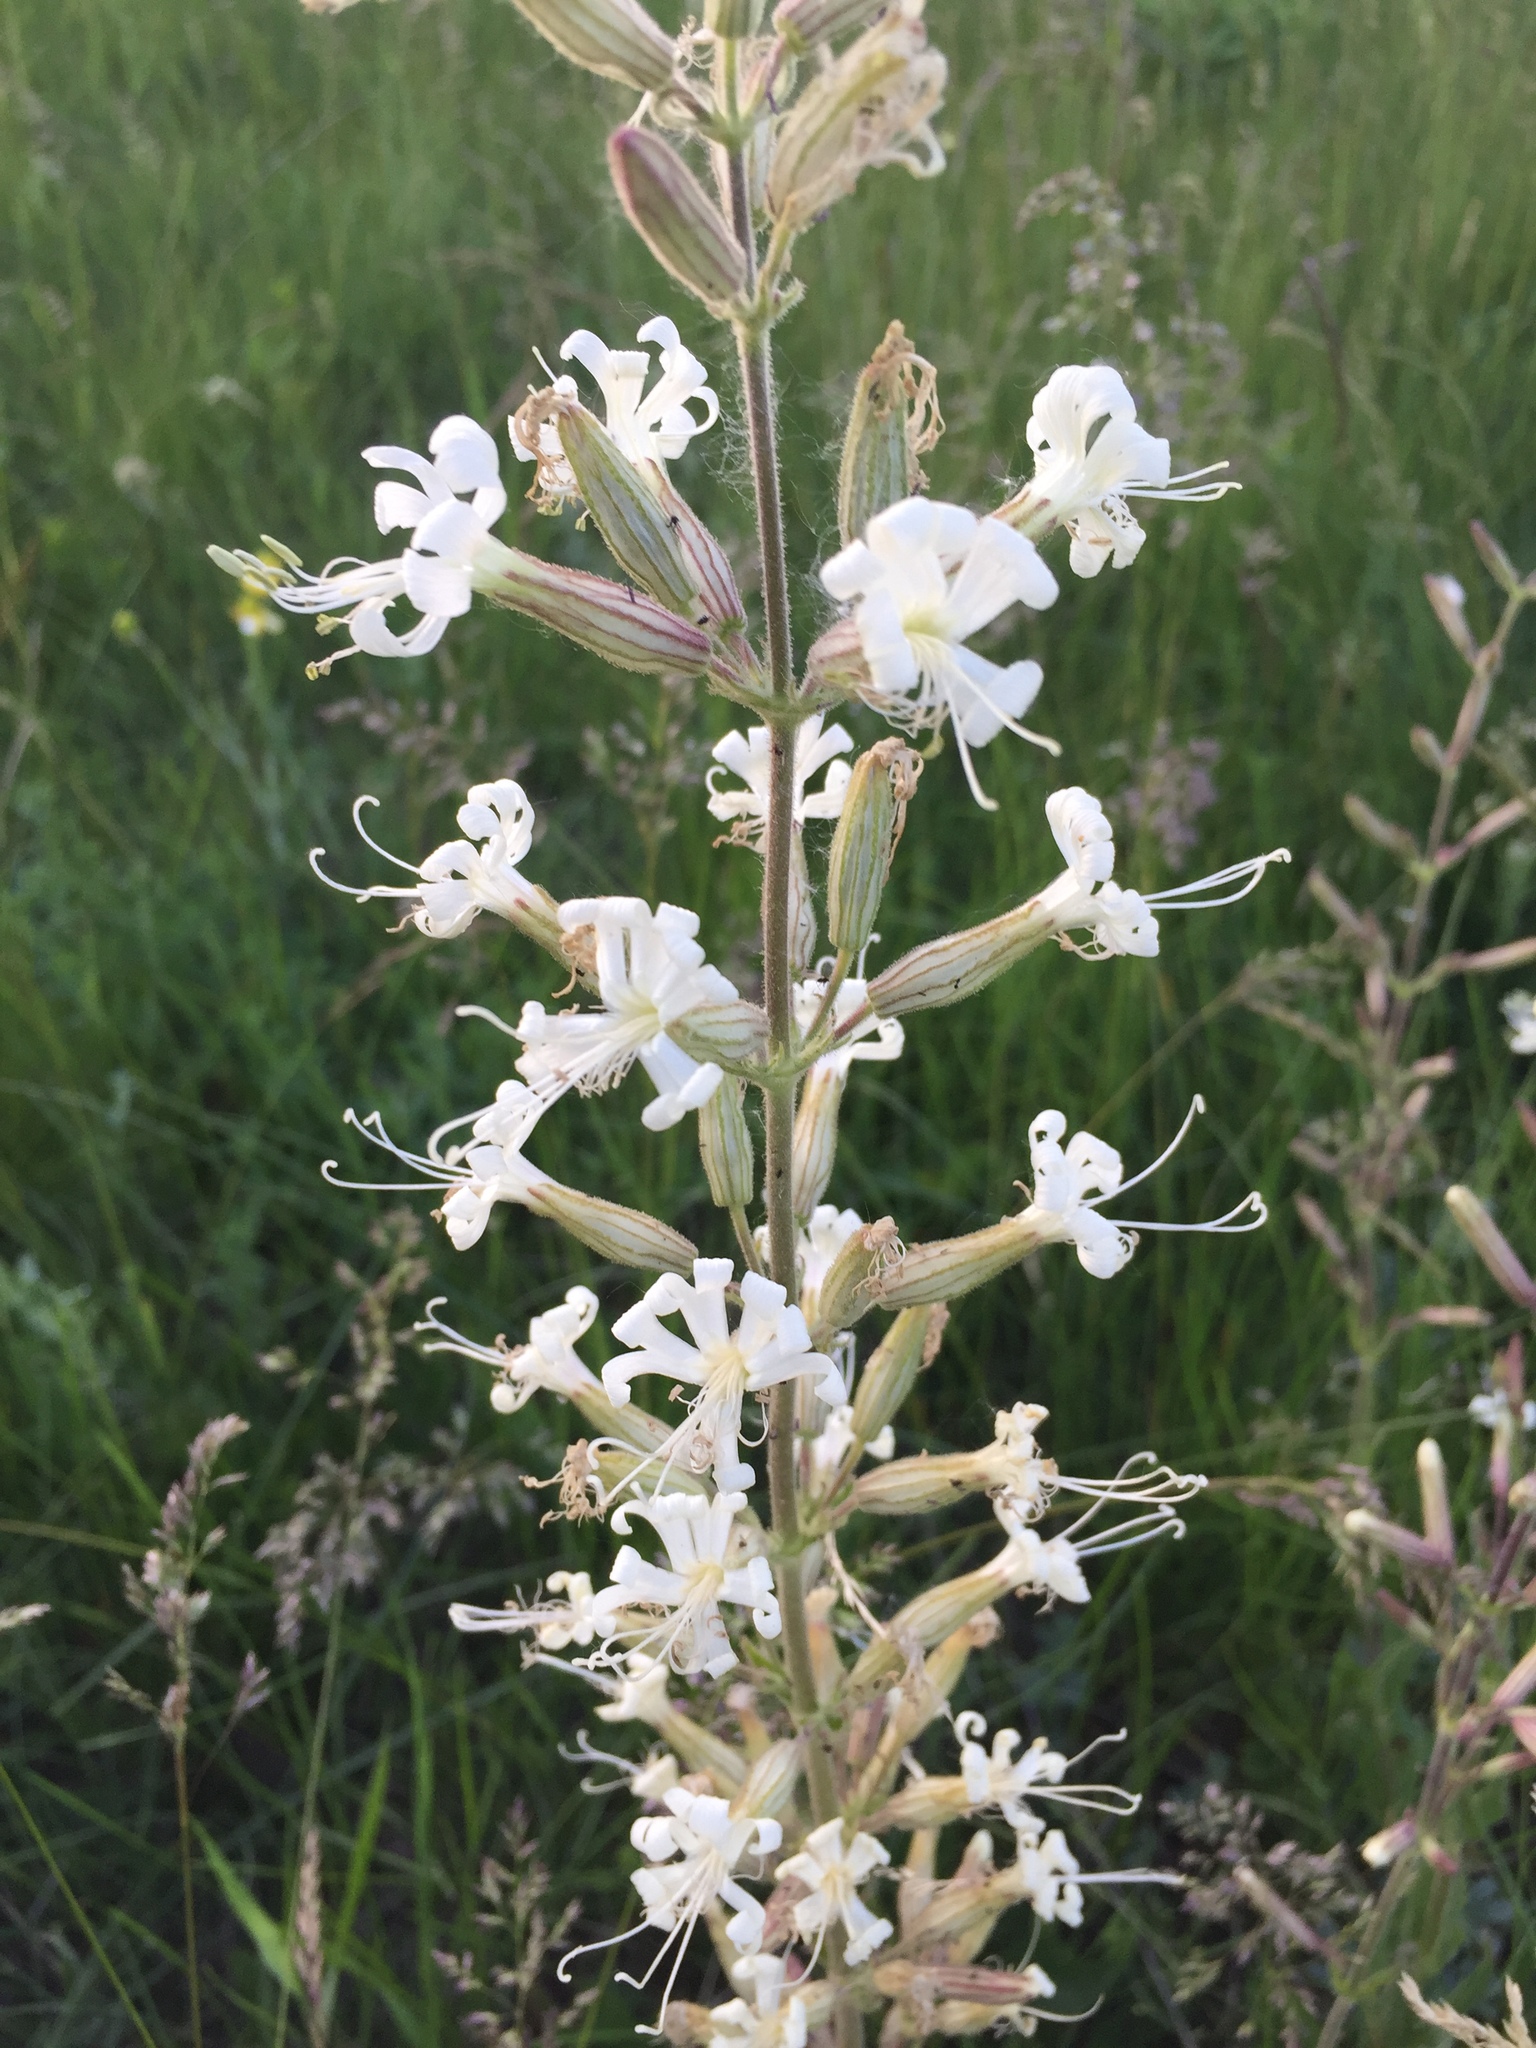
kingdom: Plantae
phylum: Tracheophyta
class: Magnoliopsida
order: Caryophyllales
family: Caryophyllaceae
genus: Silene
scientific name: Silene viscosa
